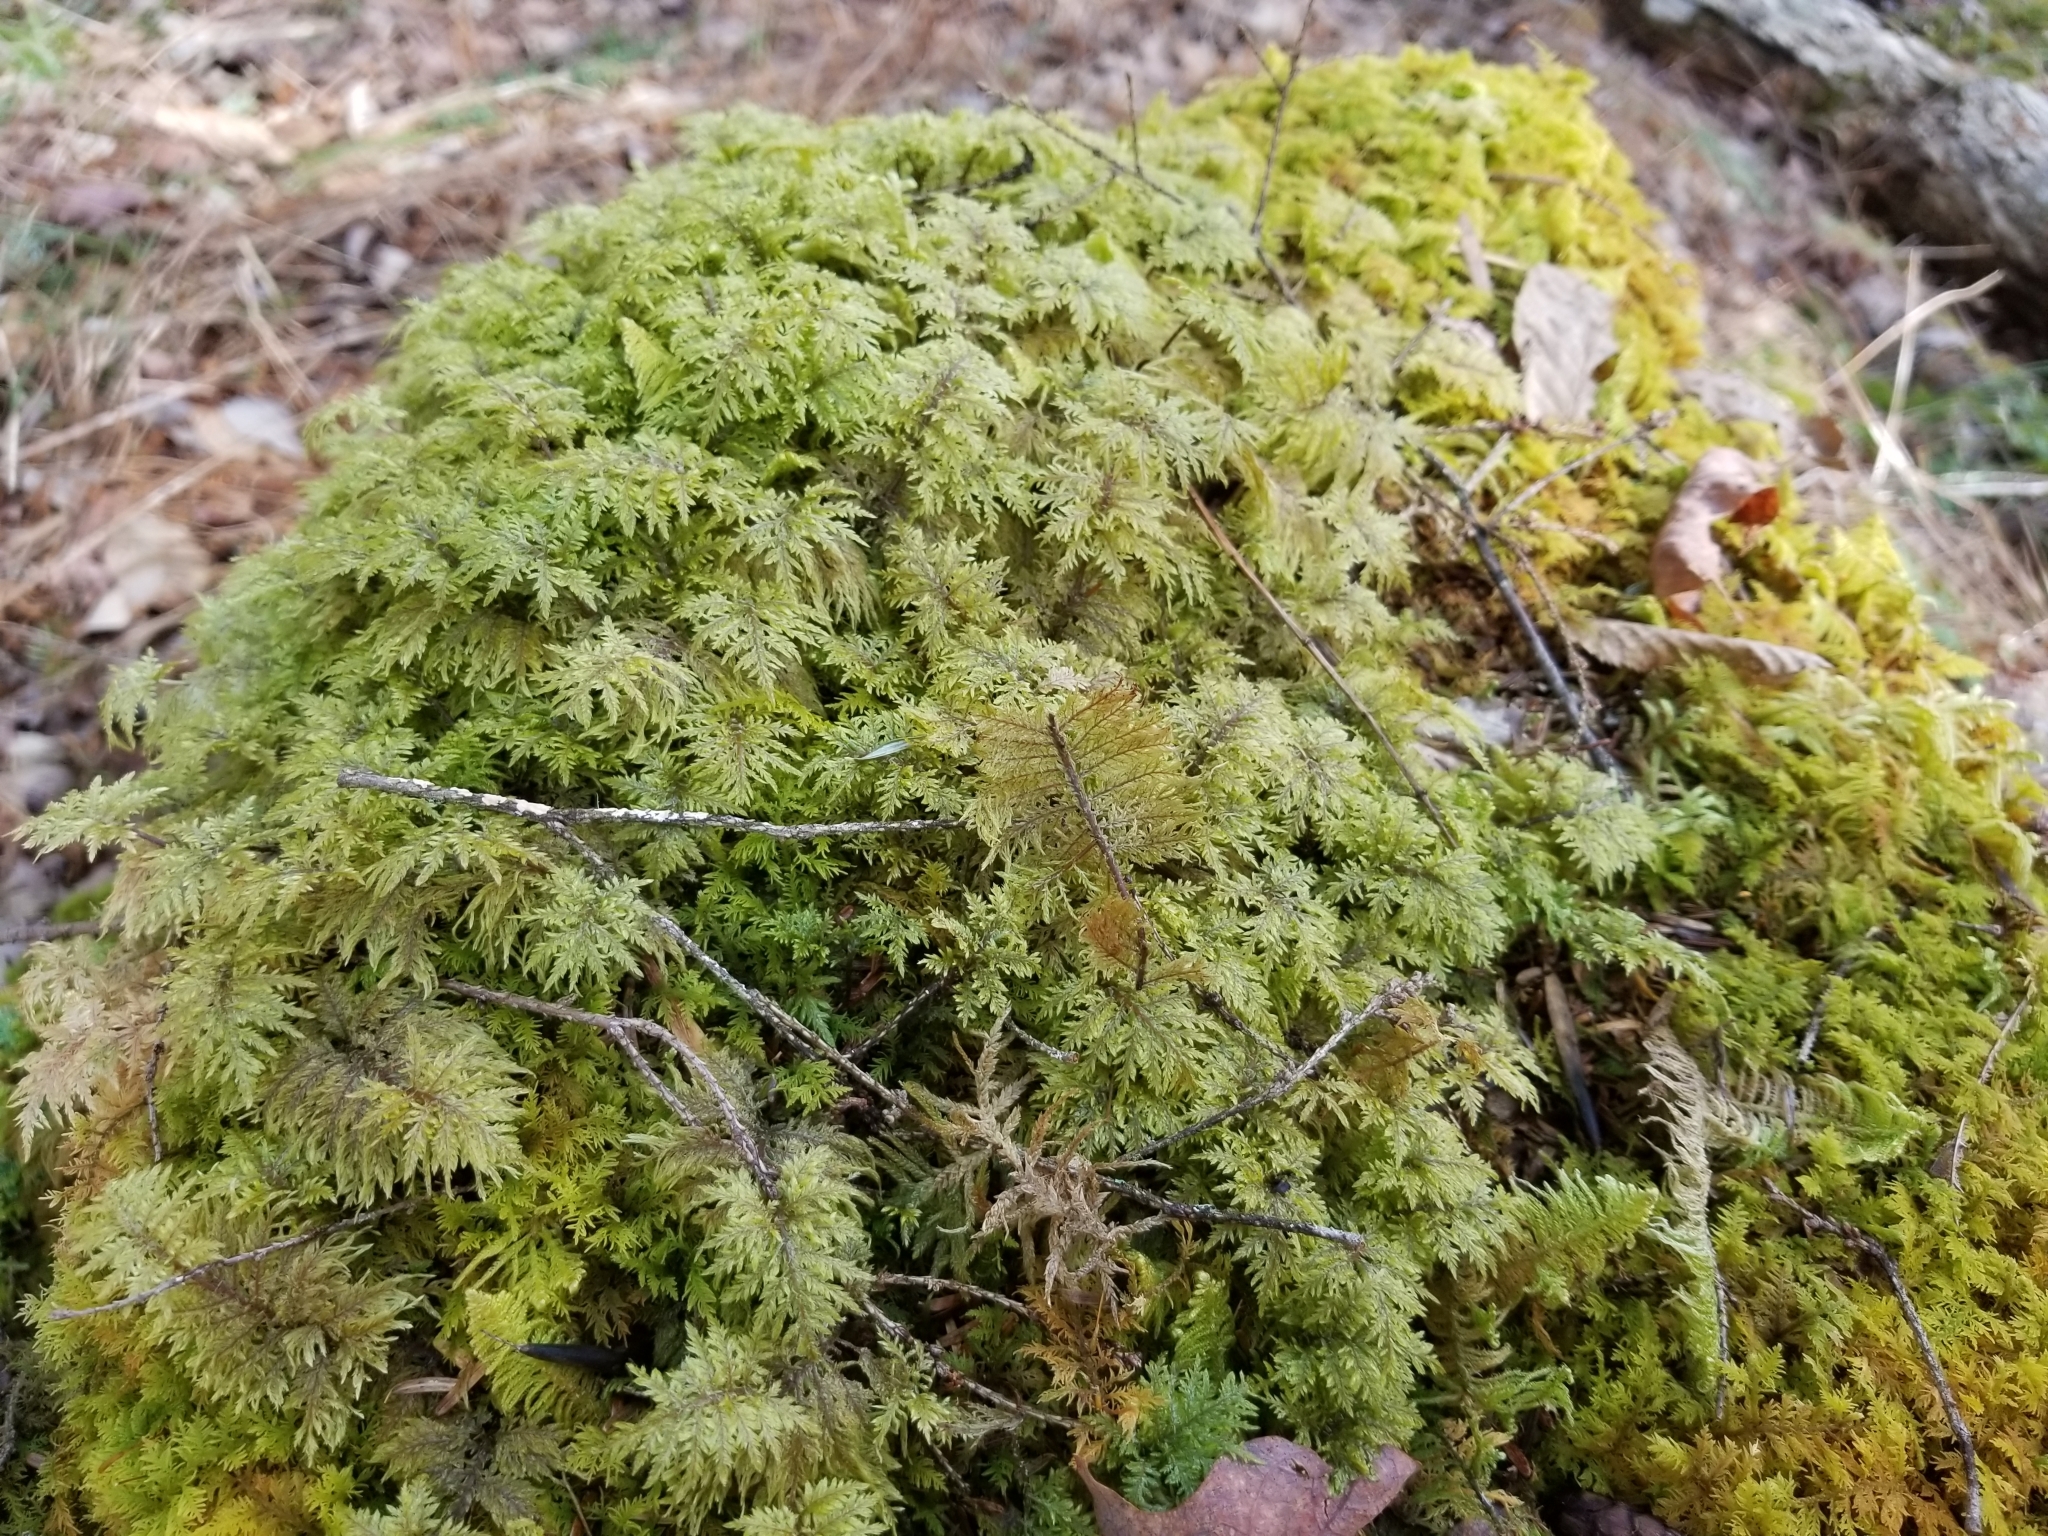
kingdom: Plantae
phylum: Bryophyta
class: Bryopsida
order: Hypnales
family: Hylocomiaceae
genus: Hylocomium
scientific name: Hylocomium splendens
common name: Stairstep moss
